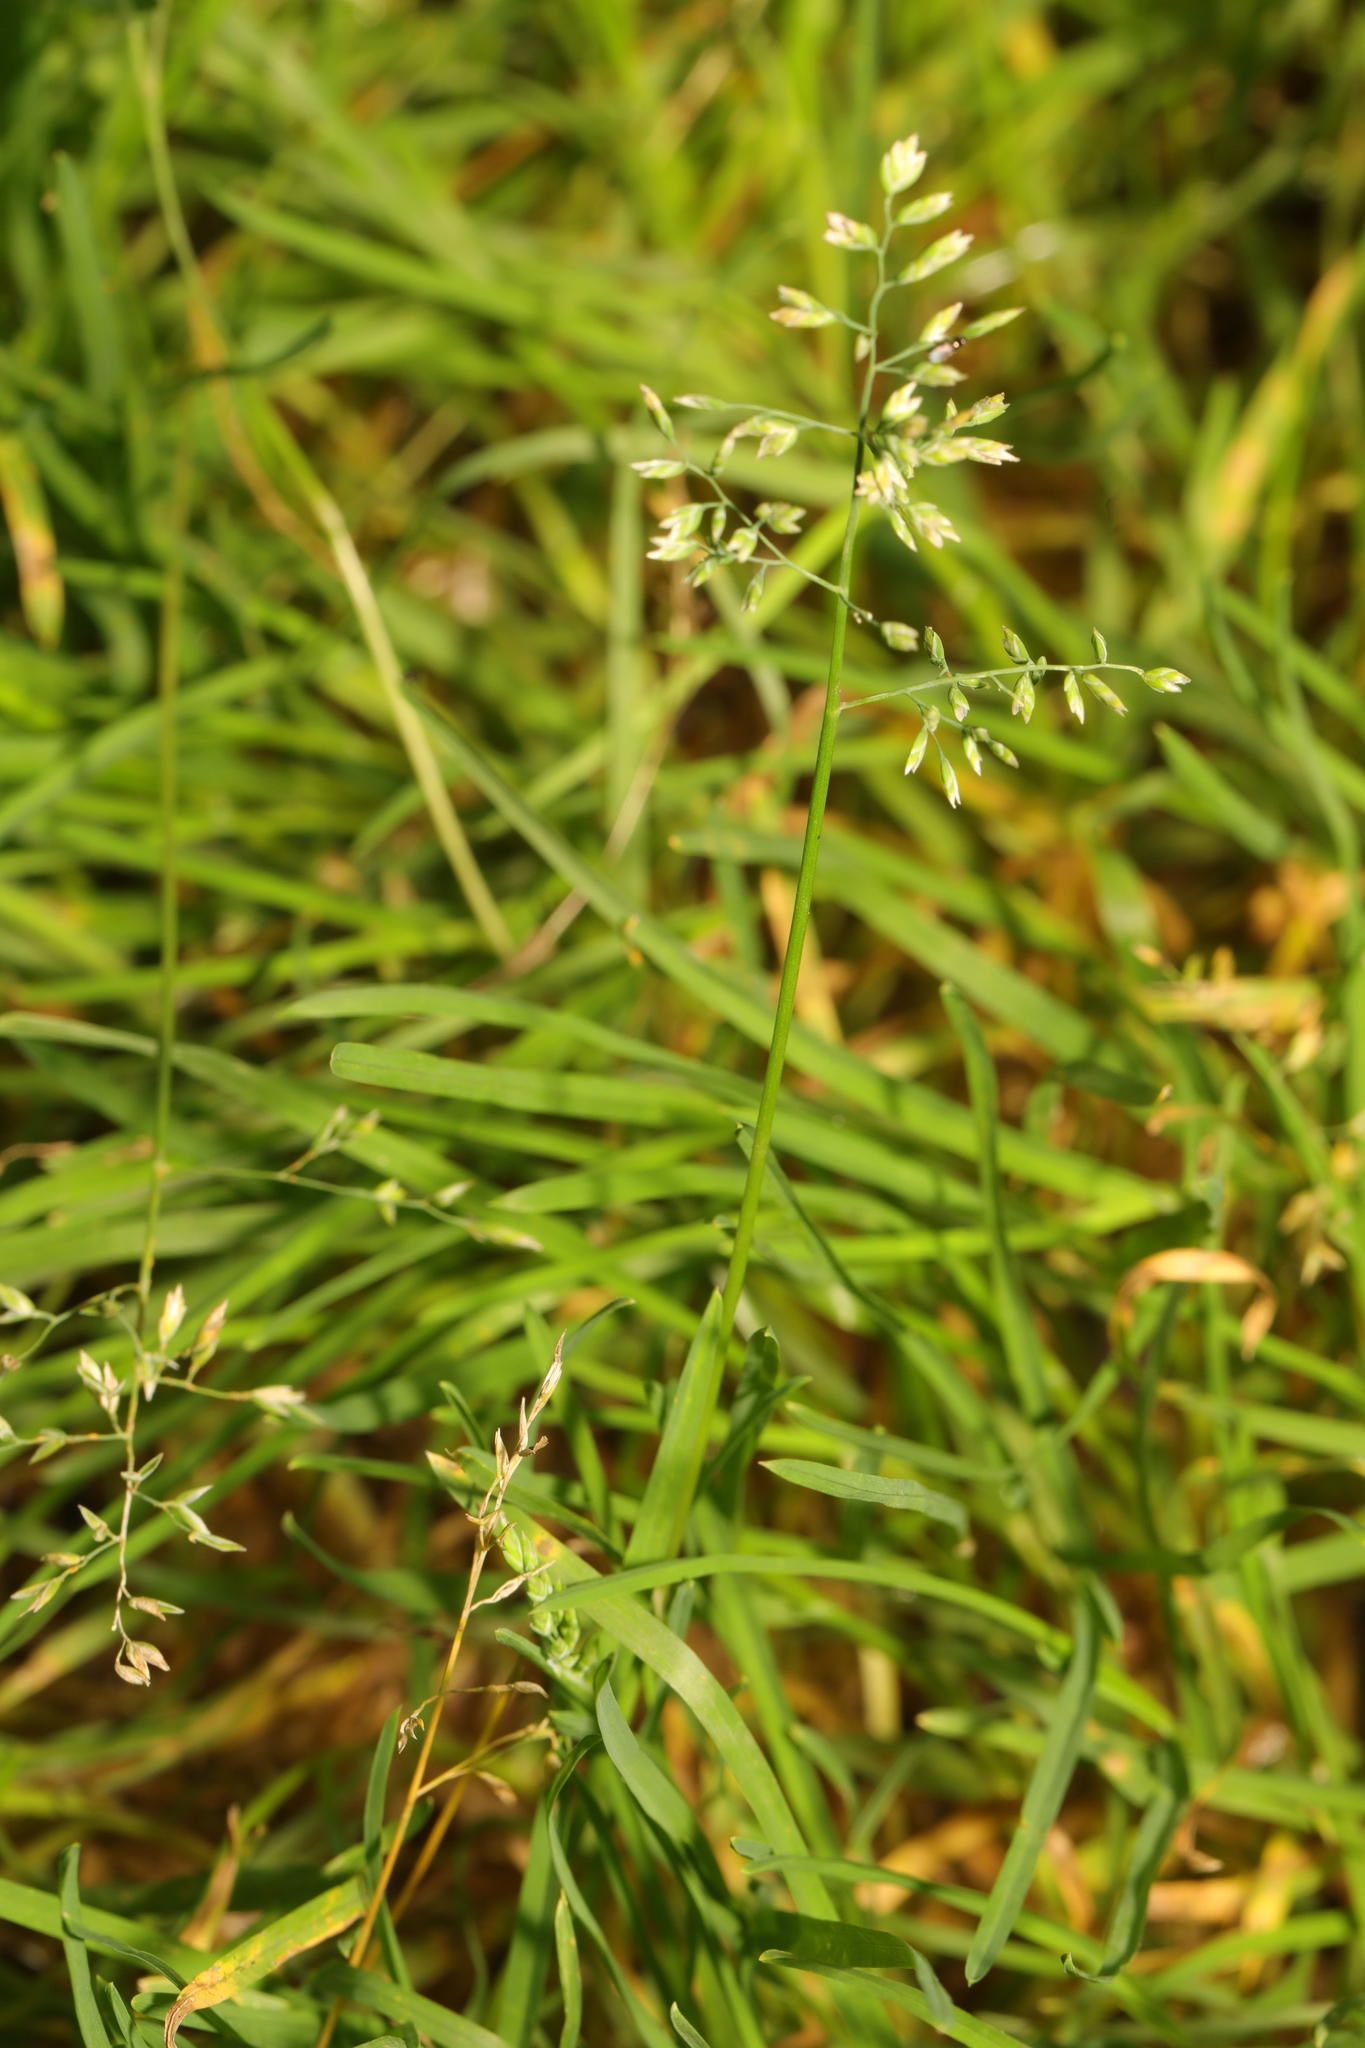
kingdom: Plantae
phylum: Tracheophyta
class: Liliopsida
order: Poales
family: Poaceae
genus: Poa
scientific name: Poa annua
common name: Annual bluegrass
